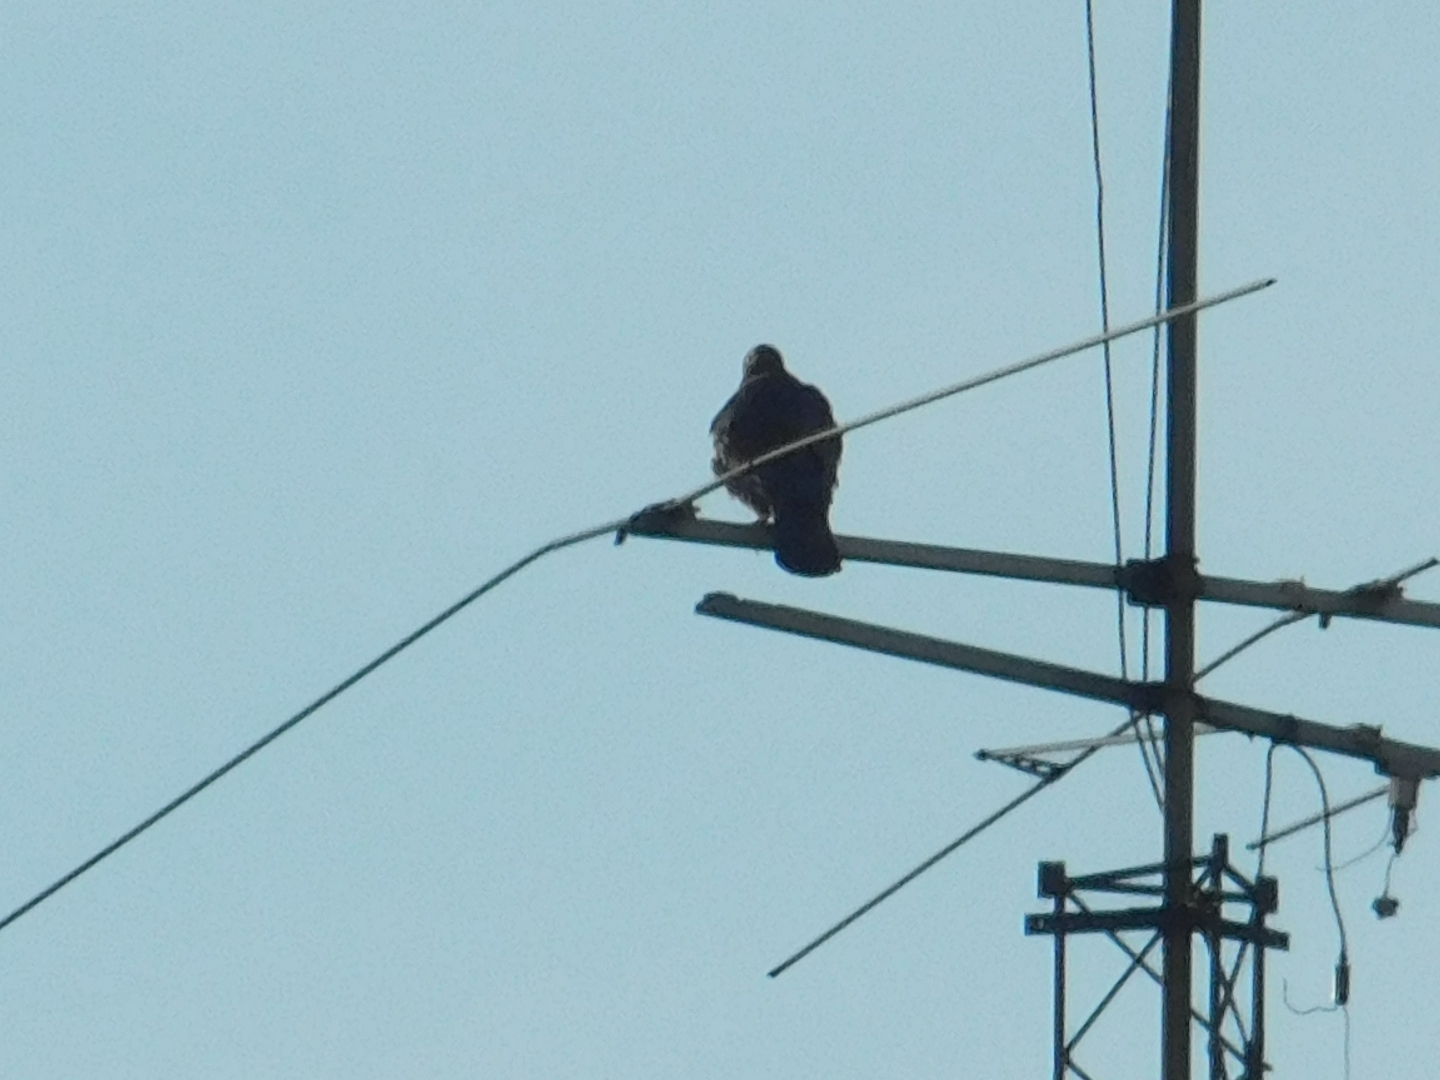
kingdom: Animalia
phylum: Chordata
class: Aves
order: Accipitriformes
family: Accipitridae
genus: Parabuteo
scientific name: Parabuteo unicinctus
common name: Harris's hawk
